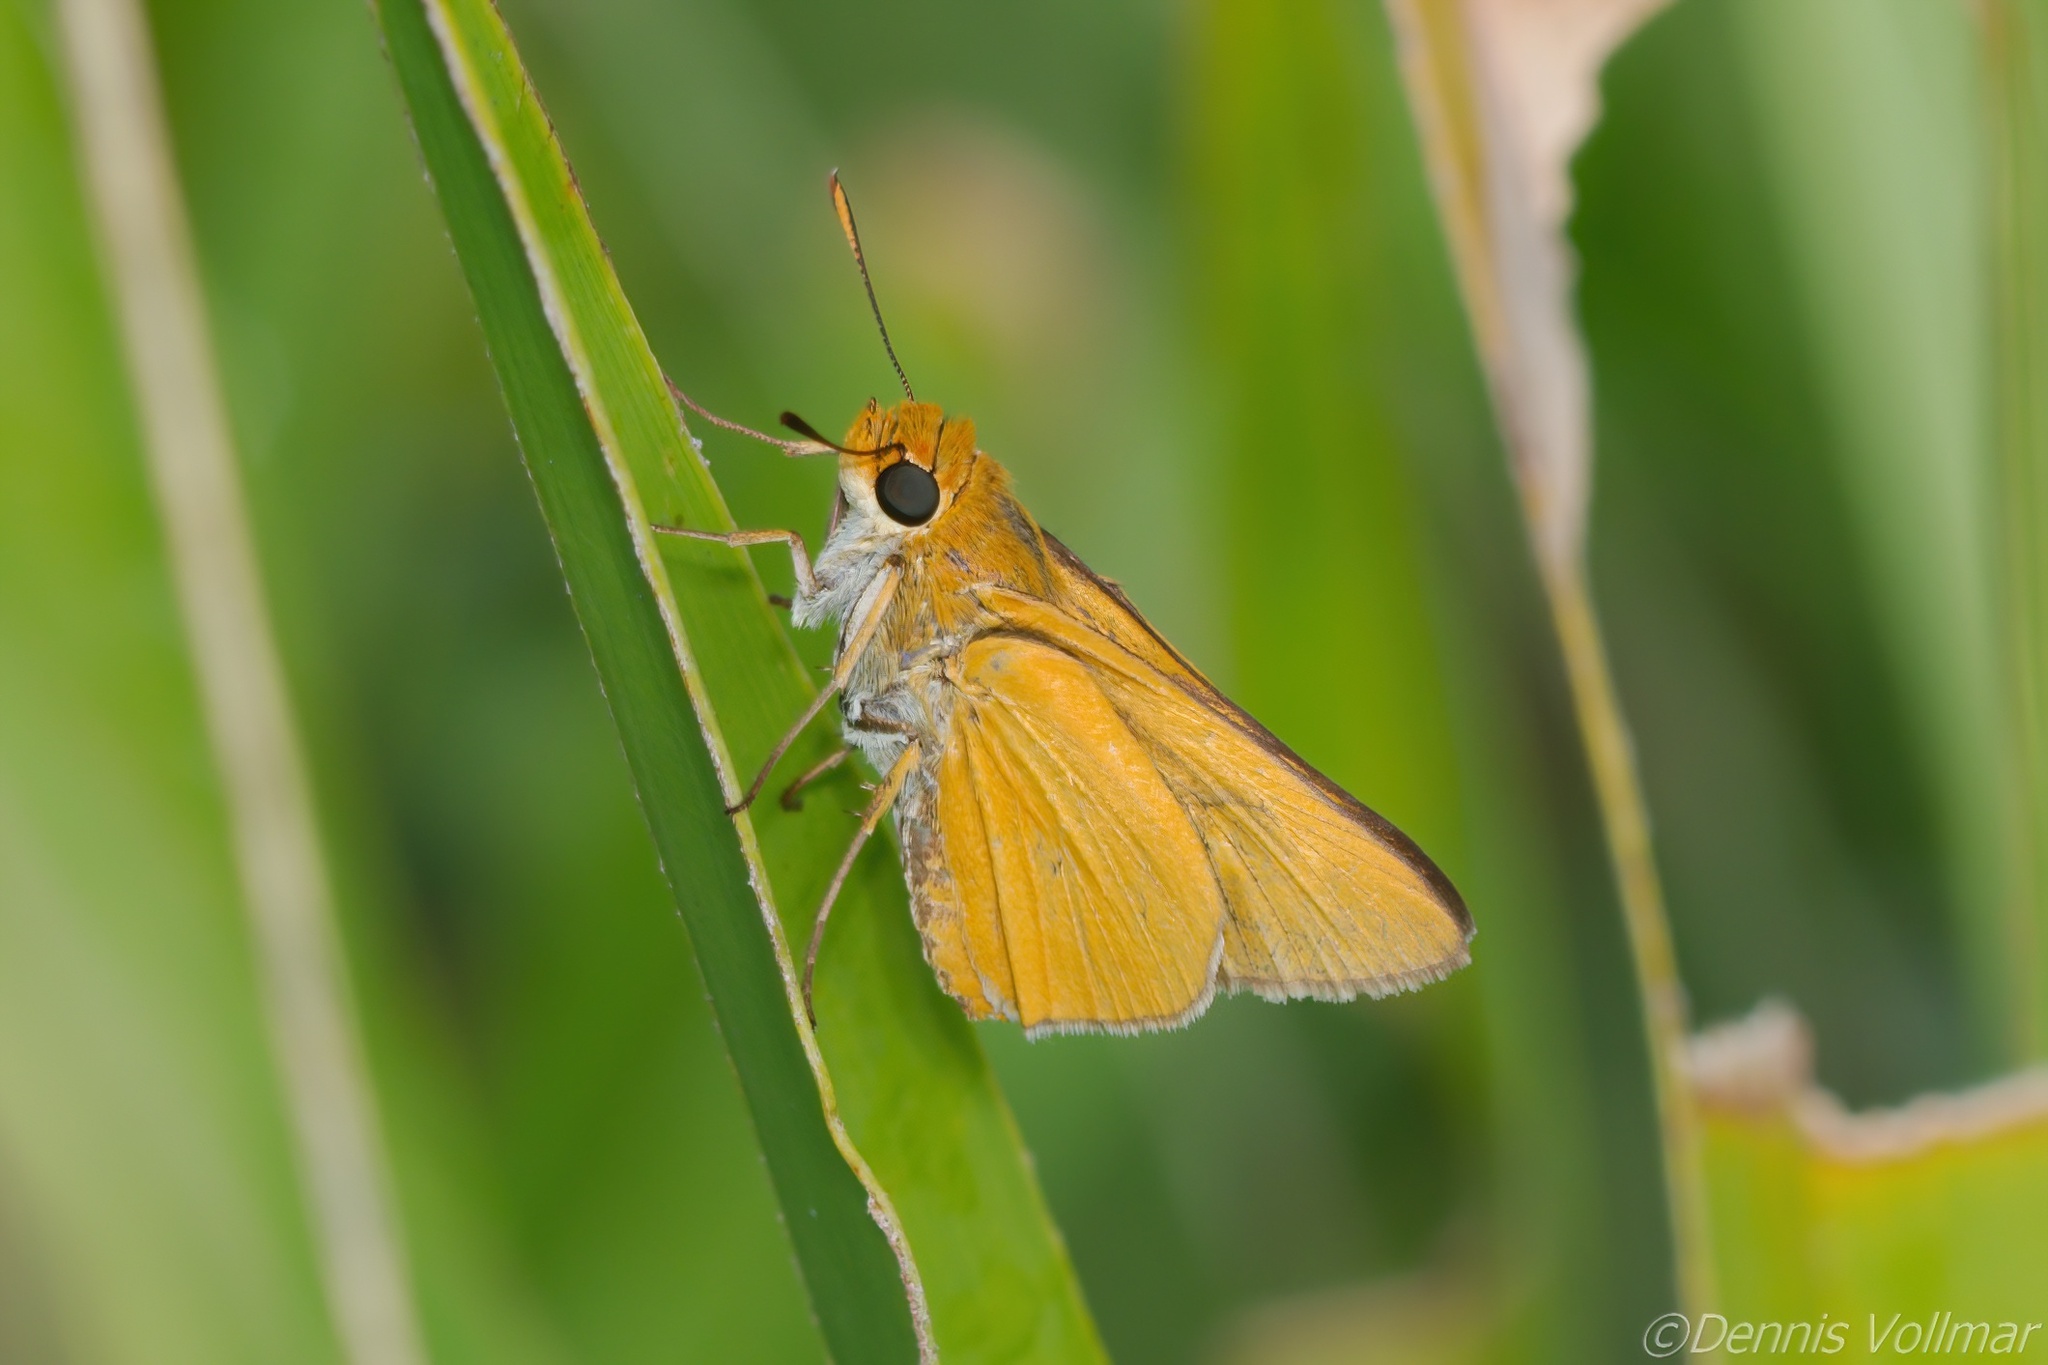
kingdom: Animalia
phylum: Arthropoda
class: Insecta
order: Lepidoptera
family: Hesperiidae
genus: Euphyes
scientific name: Euphyes arpa
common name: Palmetto skipper
